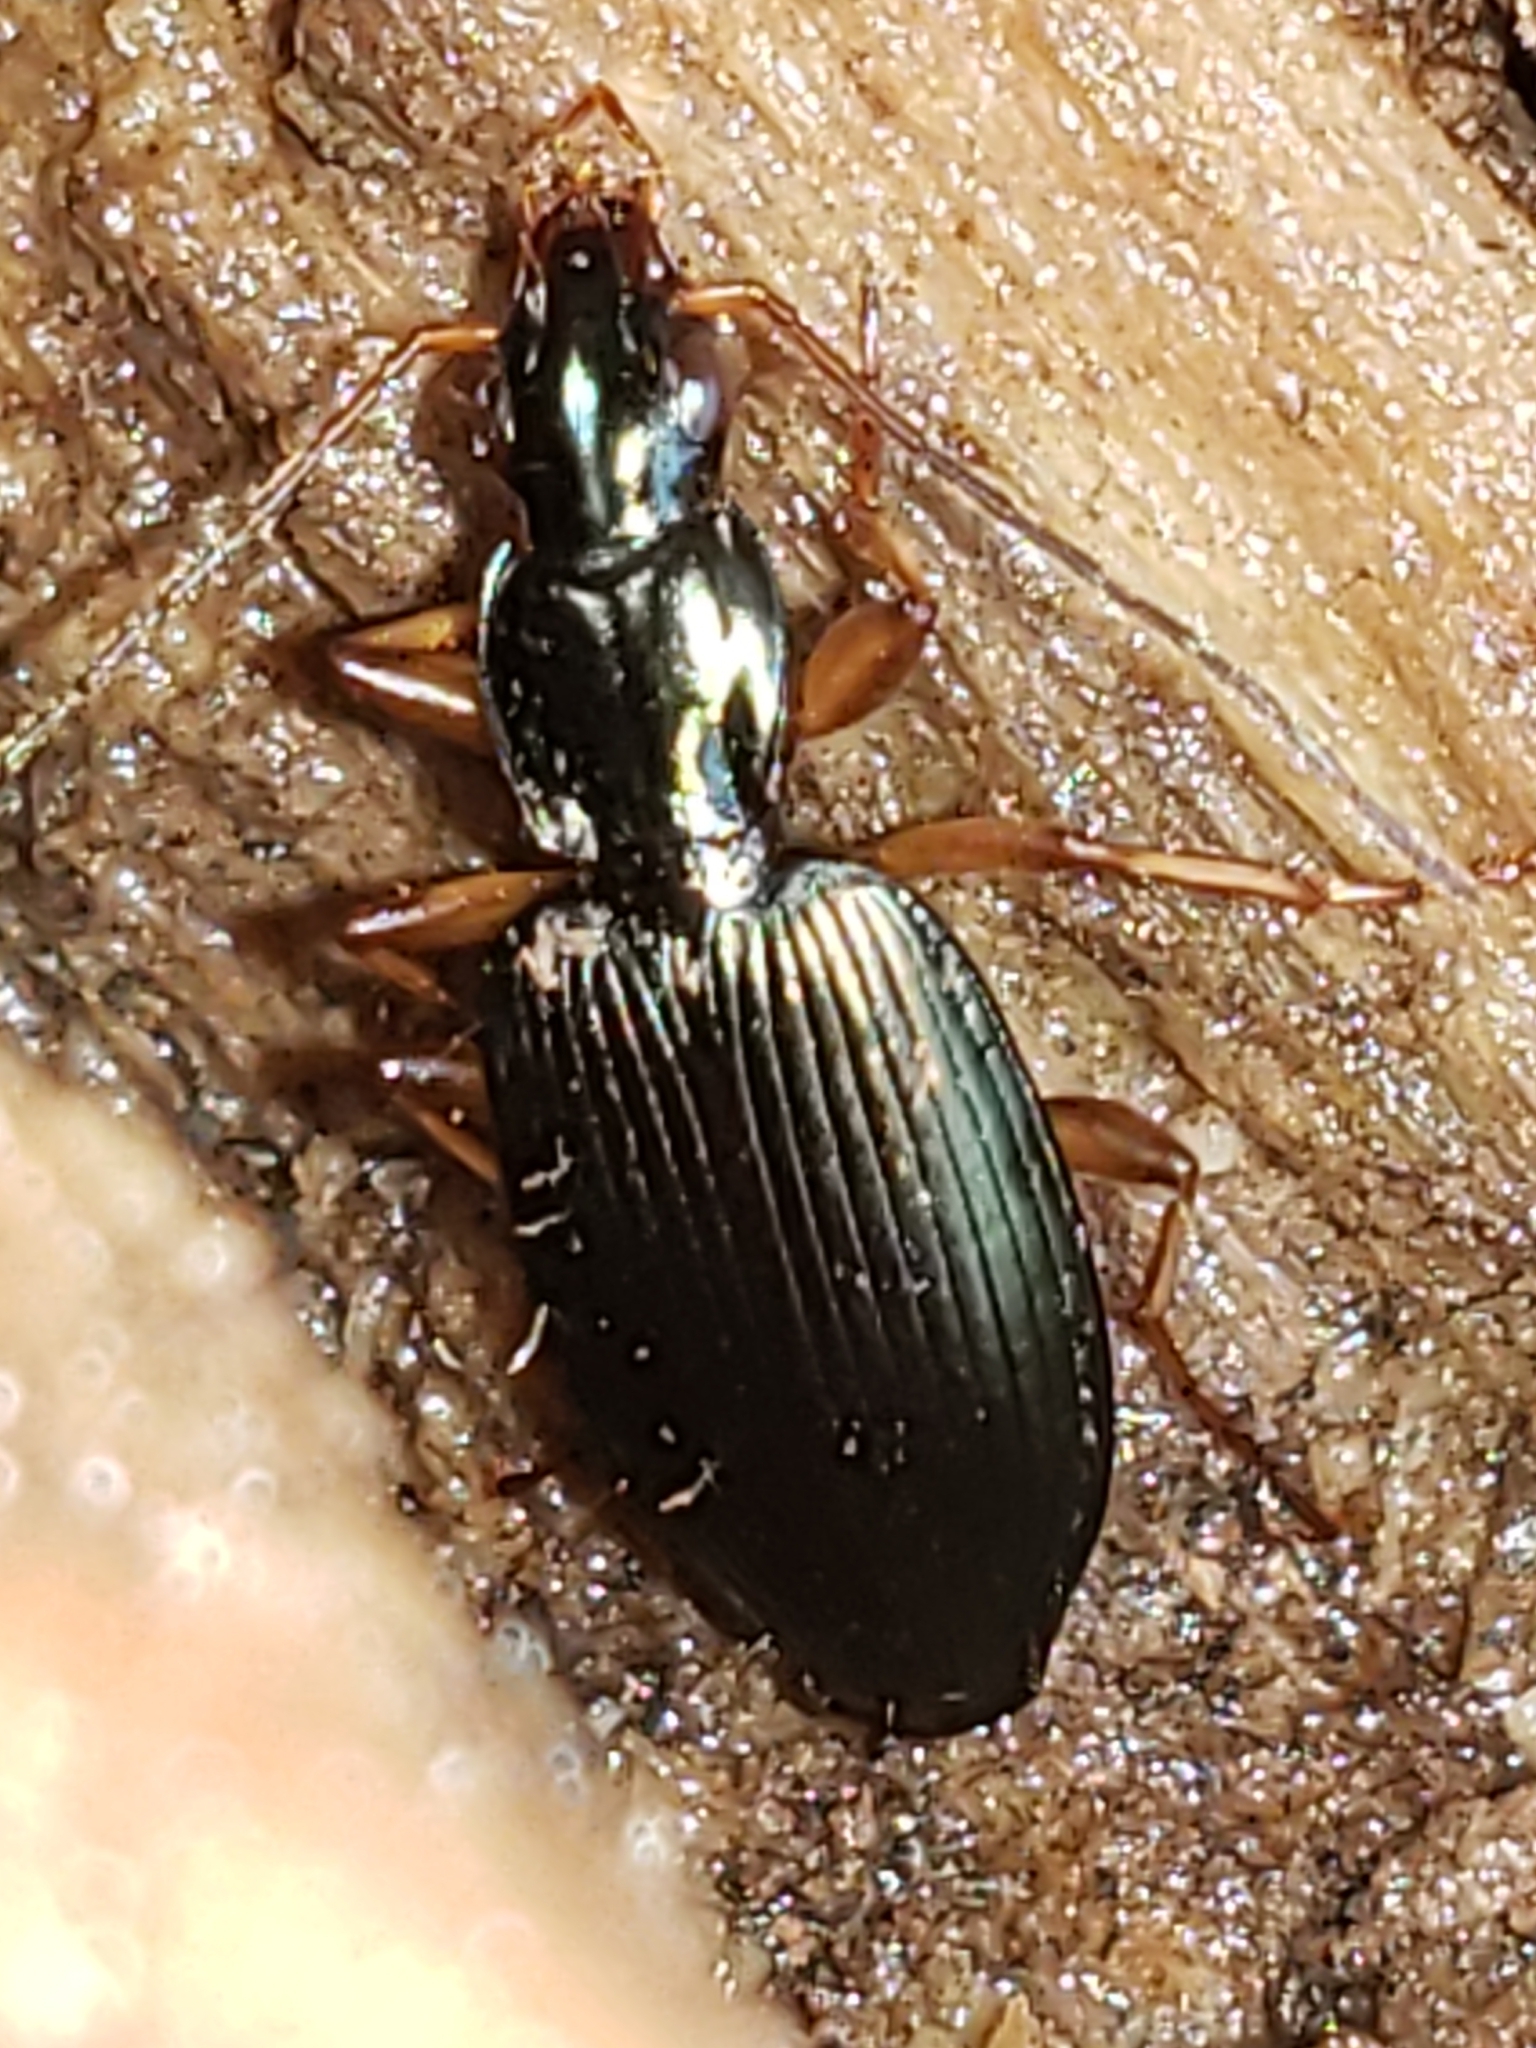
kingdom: Animalia
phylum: Arthropoda
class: Insecta
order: Coleoptera
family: Carabidae
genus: Agonum
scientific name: Agonum extensicolle
